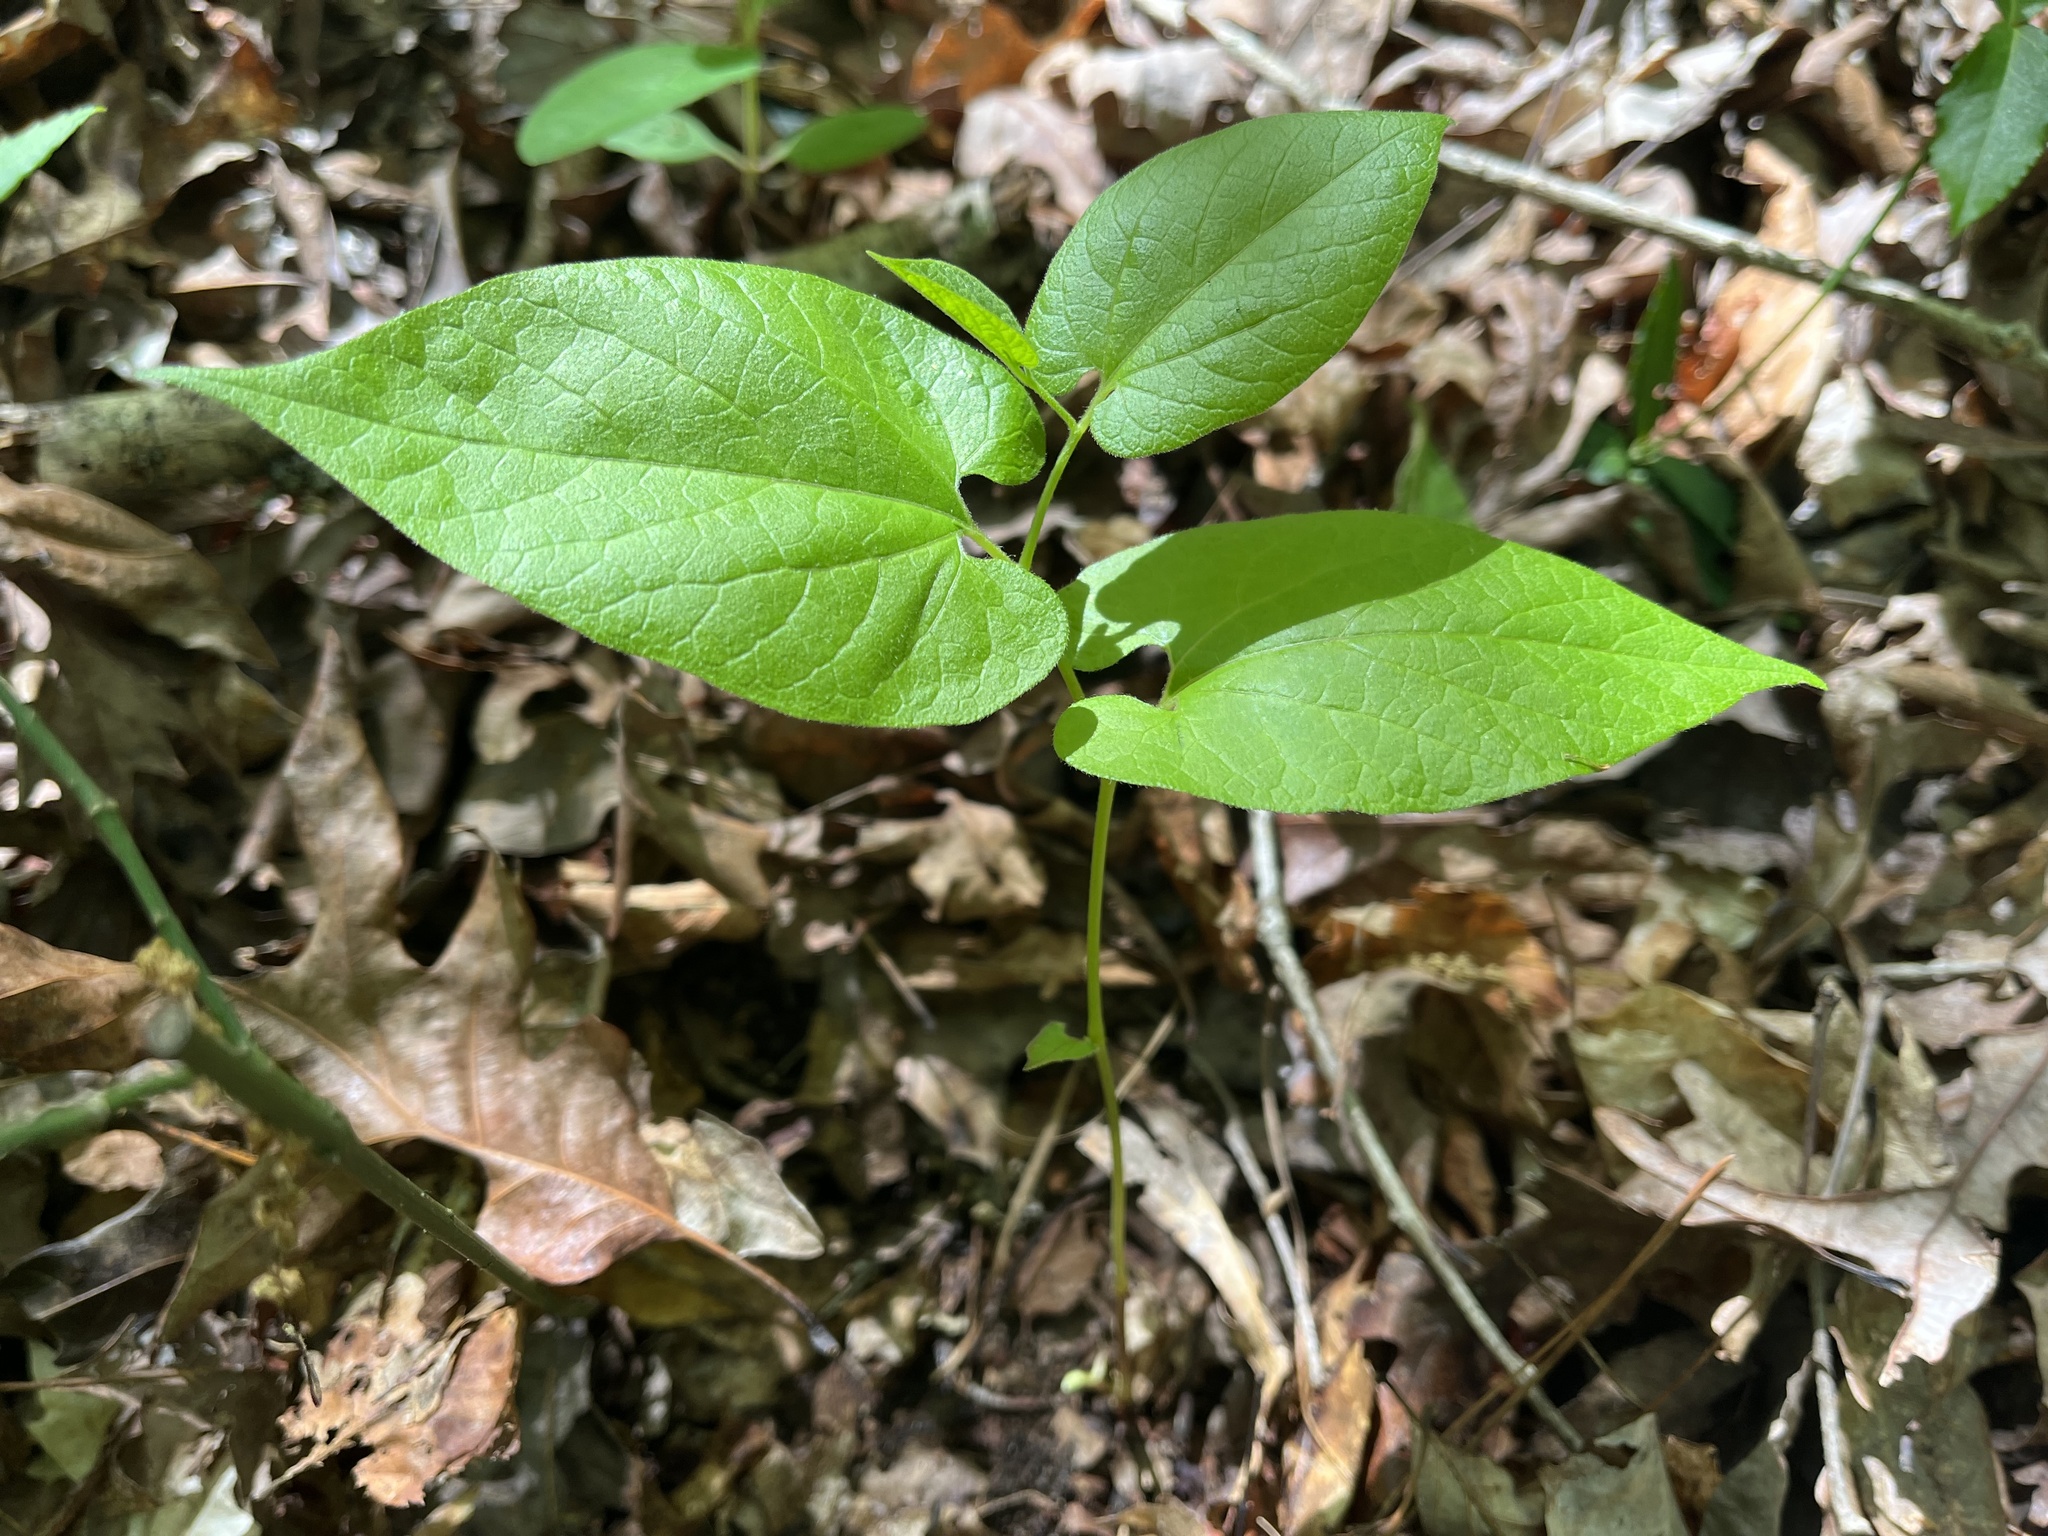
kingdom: Plantae
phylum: Tracheophyta
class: Magnoliopsida
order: Piperales
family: Aristolochiaceae
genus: Endodeca
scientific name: Endodeca serpentaria
